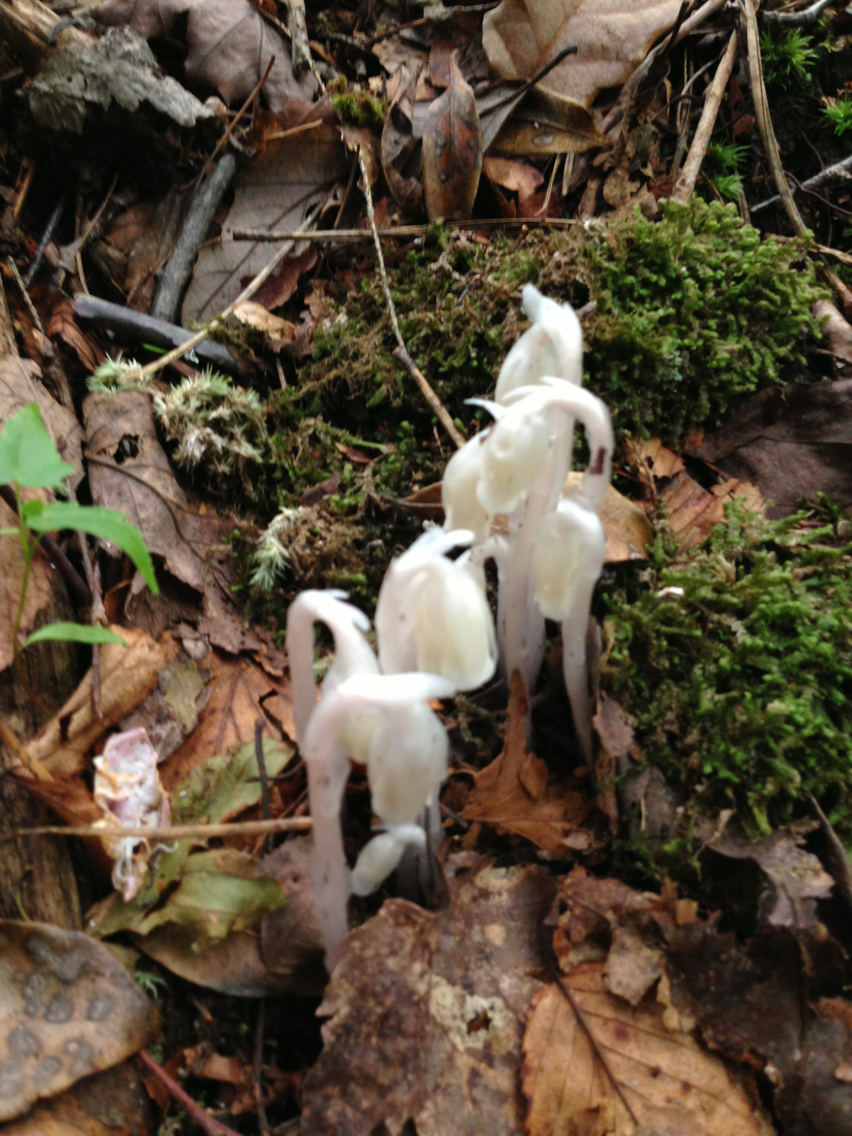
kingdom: Plantae
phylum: Tracheophyta
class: Magnoliopsida
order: Ericales
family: Ericaceae
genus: Monotropa
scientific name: Monotropa uniflora
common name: Convulsion root
